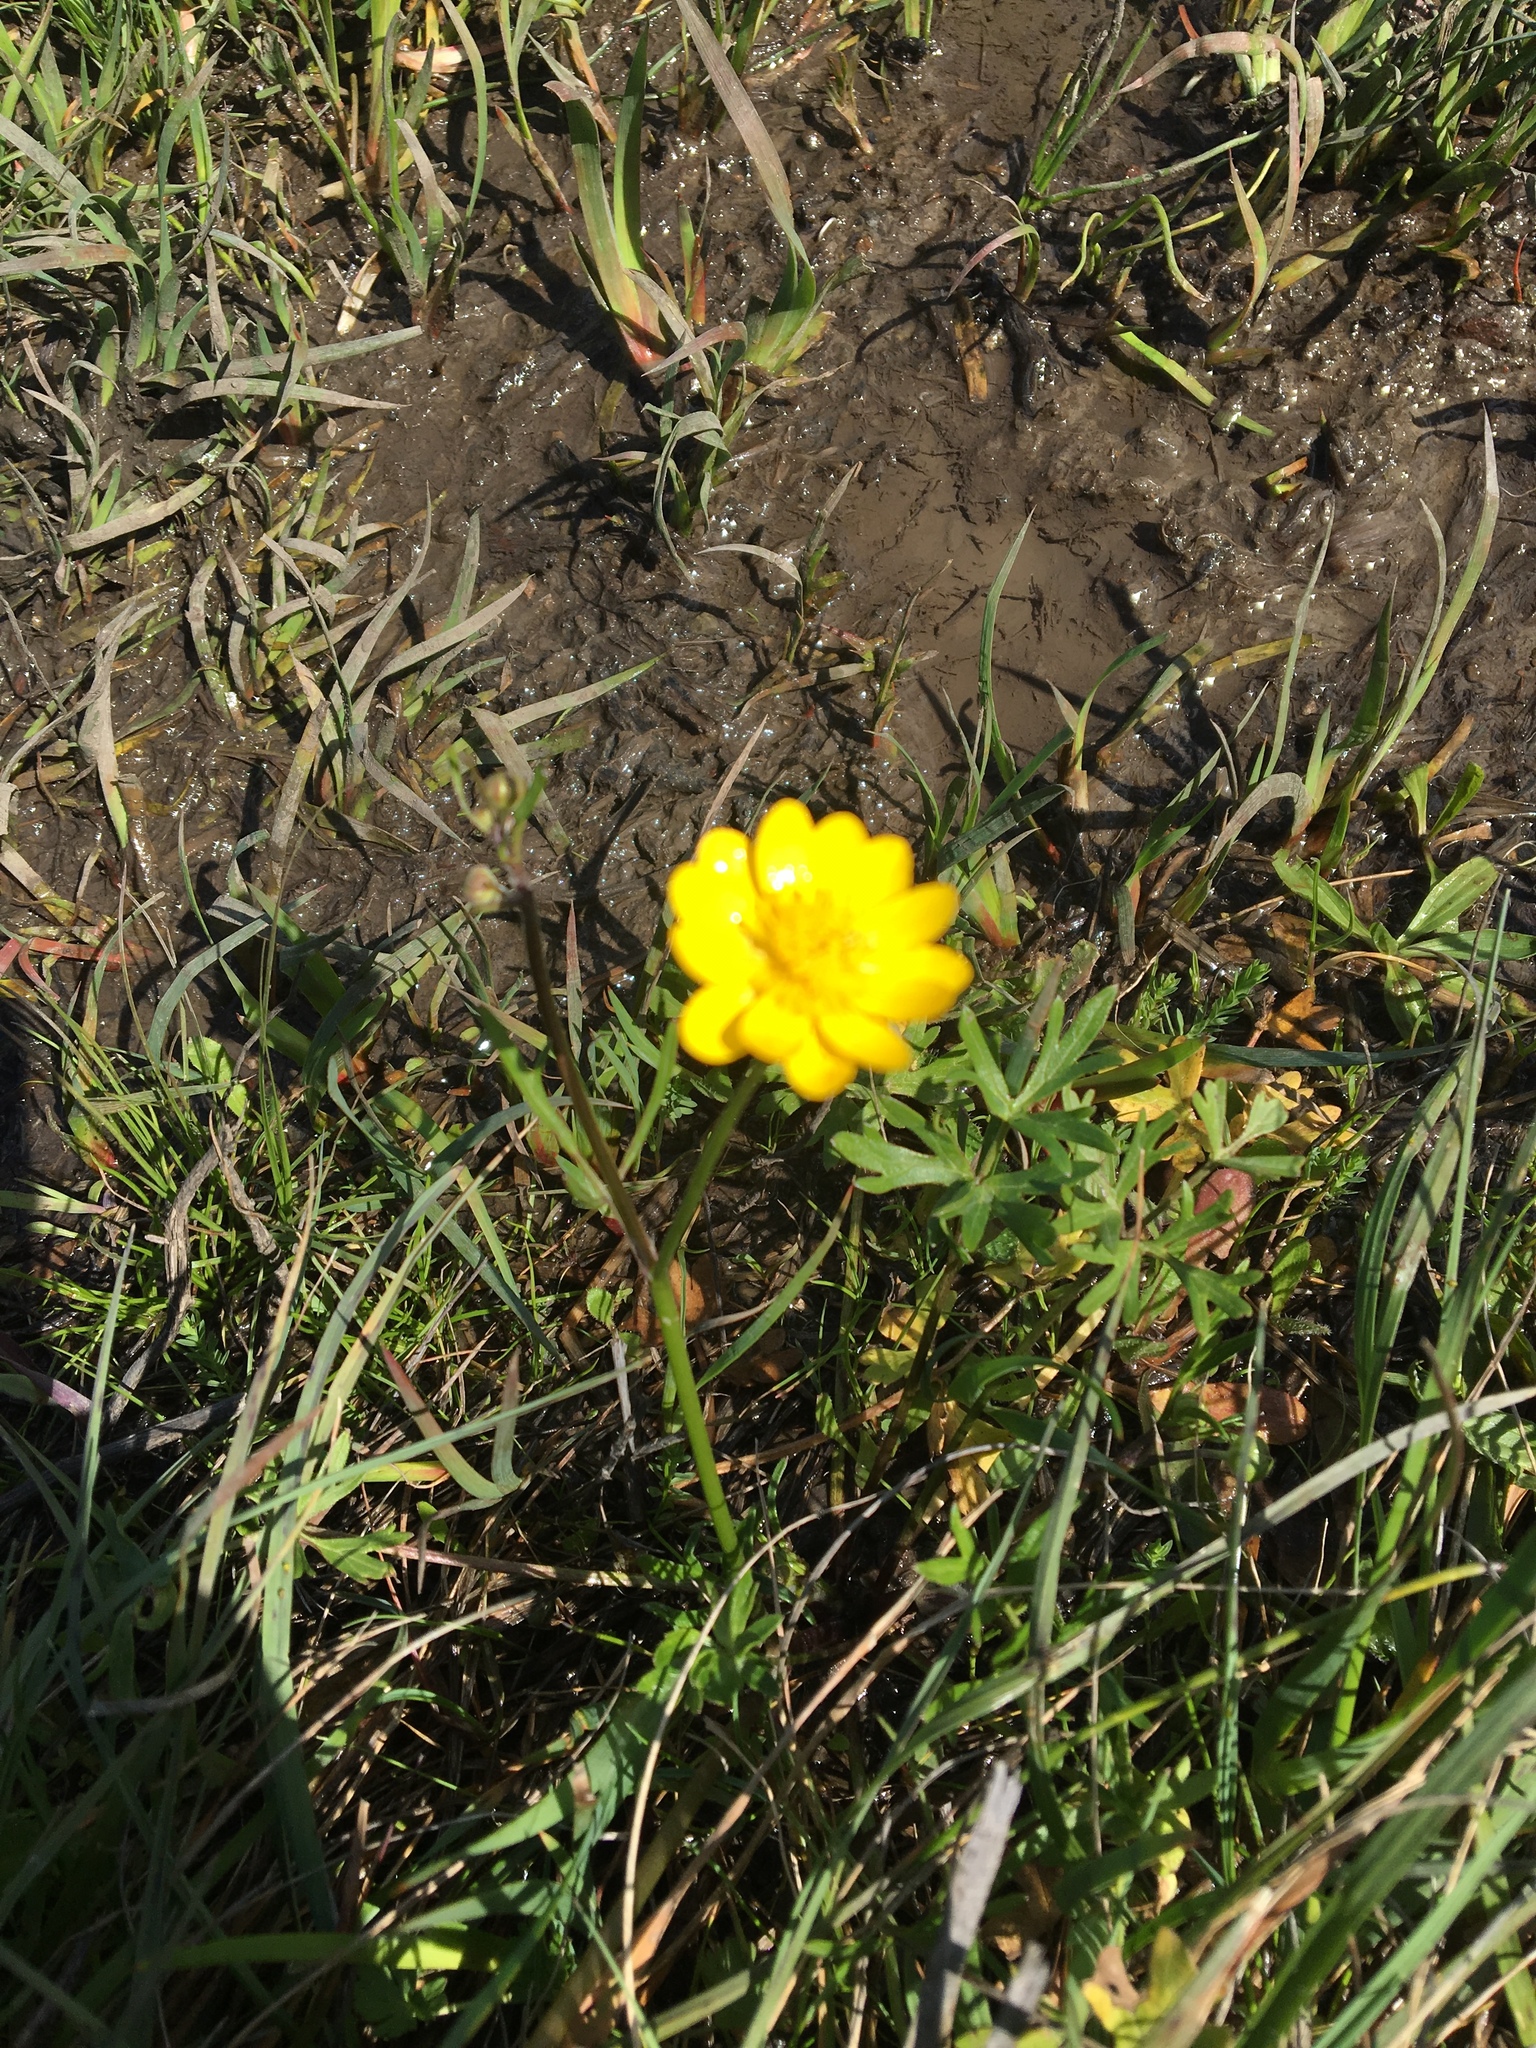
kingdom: Plantae
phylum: Tracheophyta
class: Magnoliopsida
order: Ranunculales
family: Ranunculaceae
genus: Ranunculus
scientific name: Ranunculus californicus
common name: California buttercup
